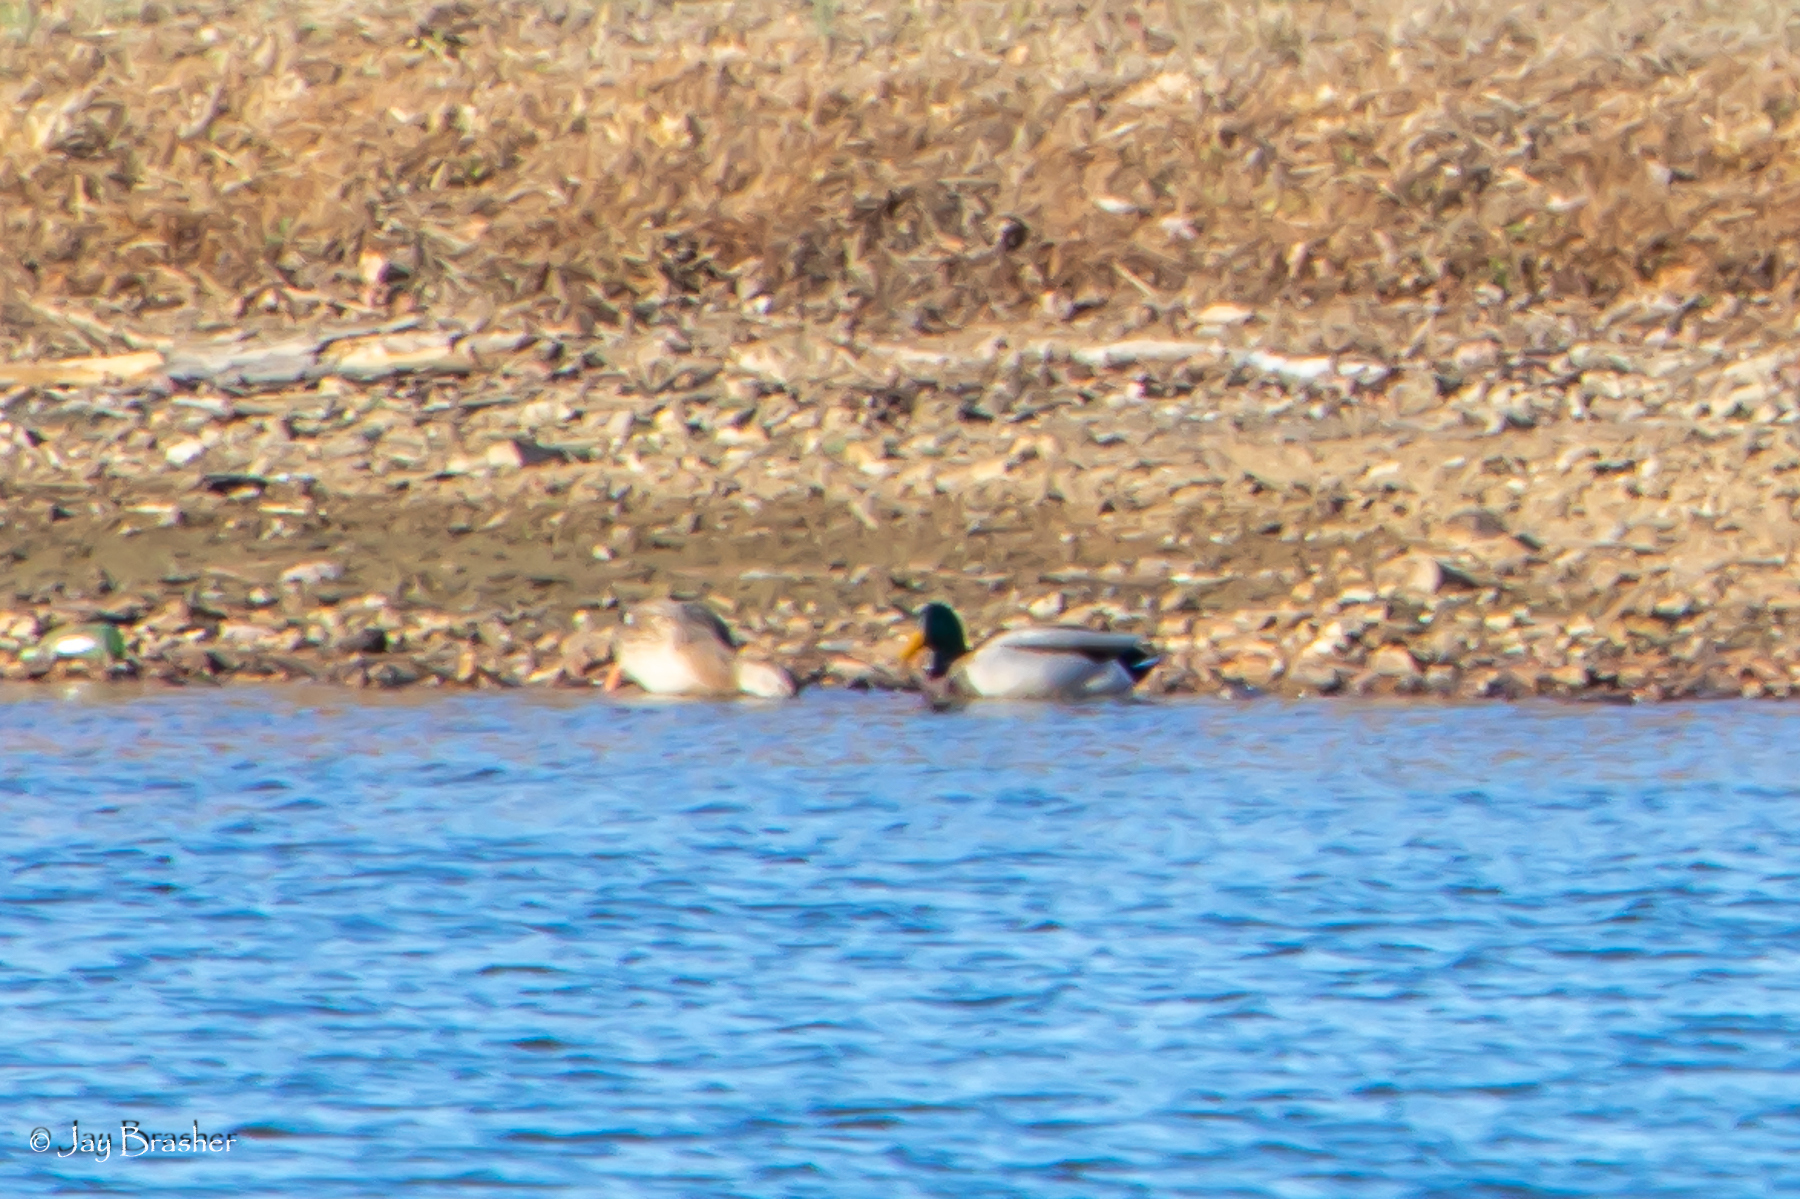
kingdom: Animalia
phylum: Chordata
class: Aves
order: Anseriformes
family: Anatidae
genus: Anas
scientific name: Anas platyrhynchos
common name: Mallard
